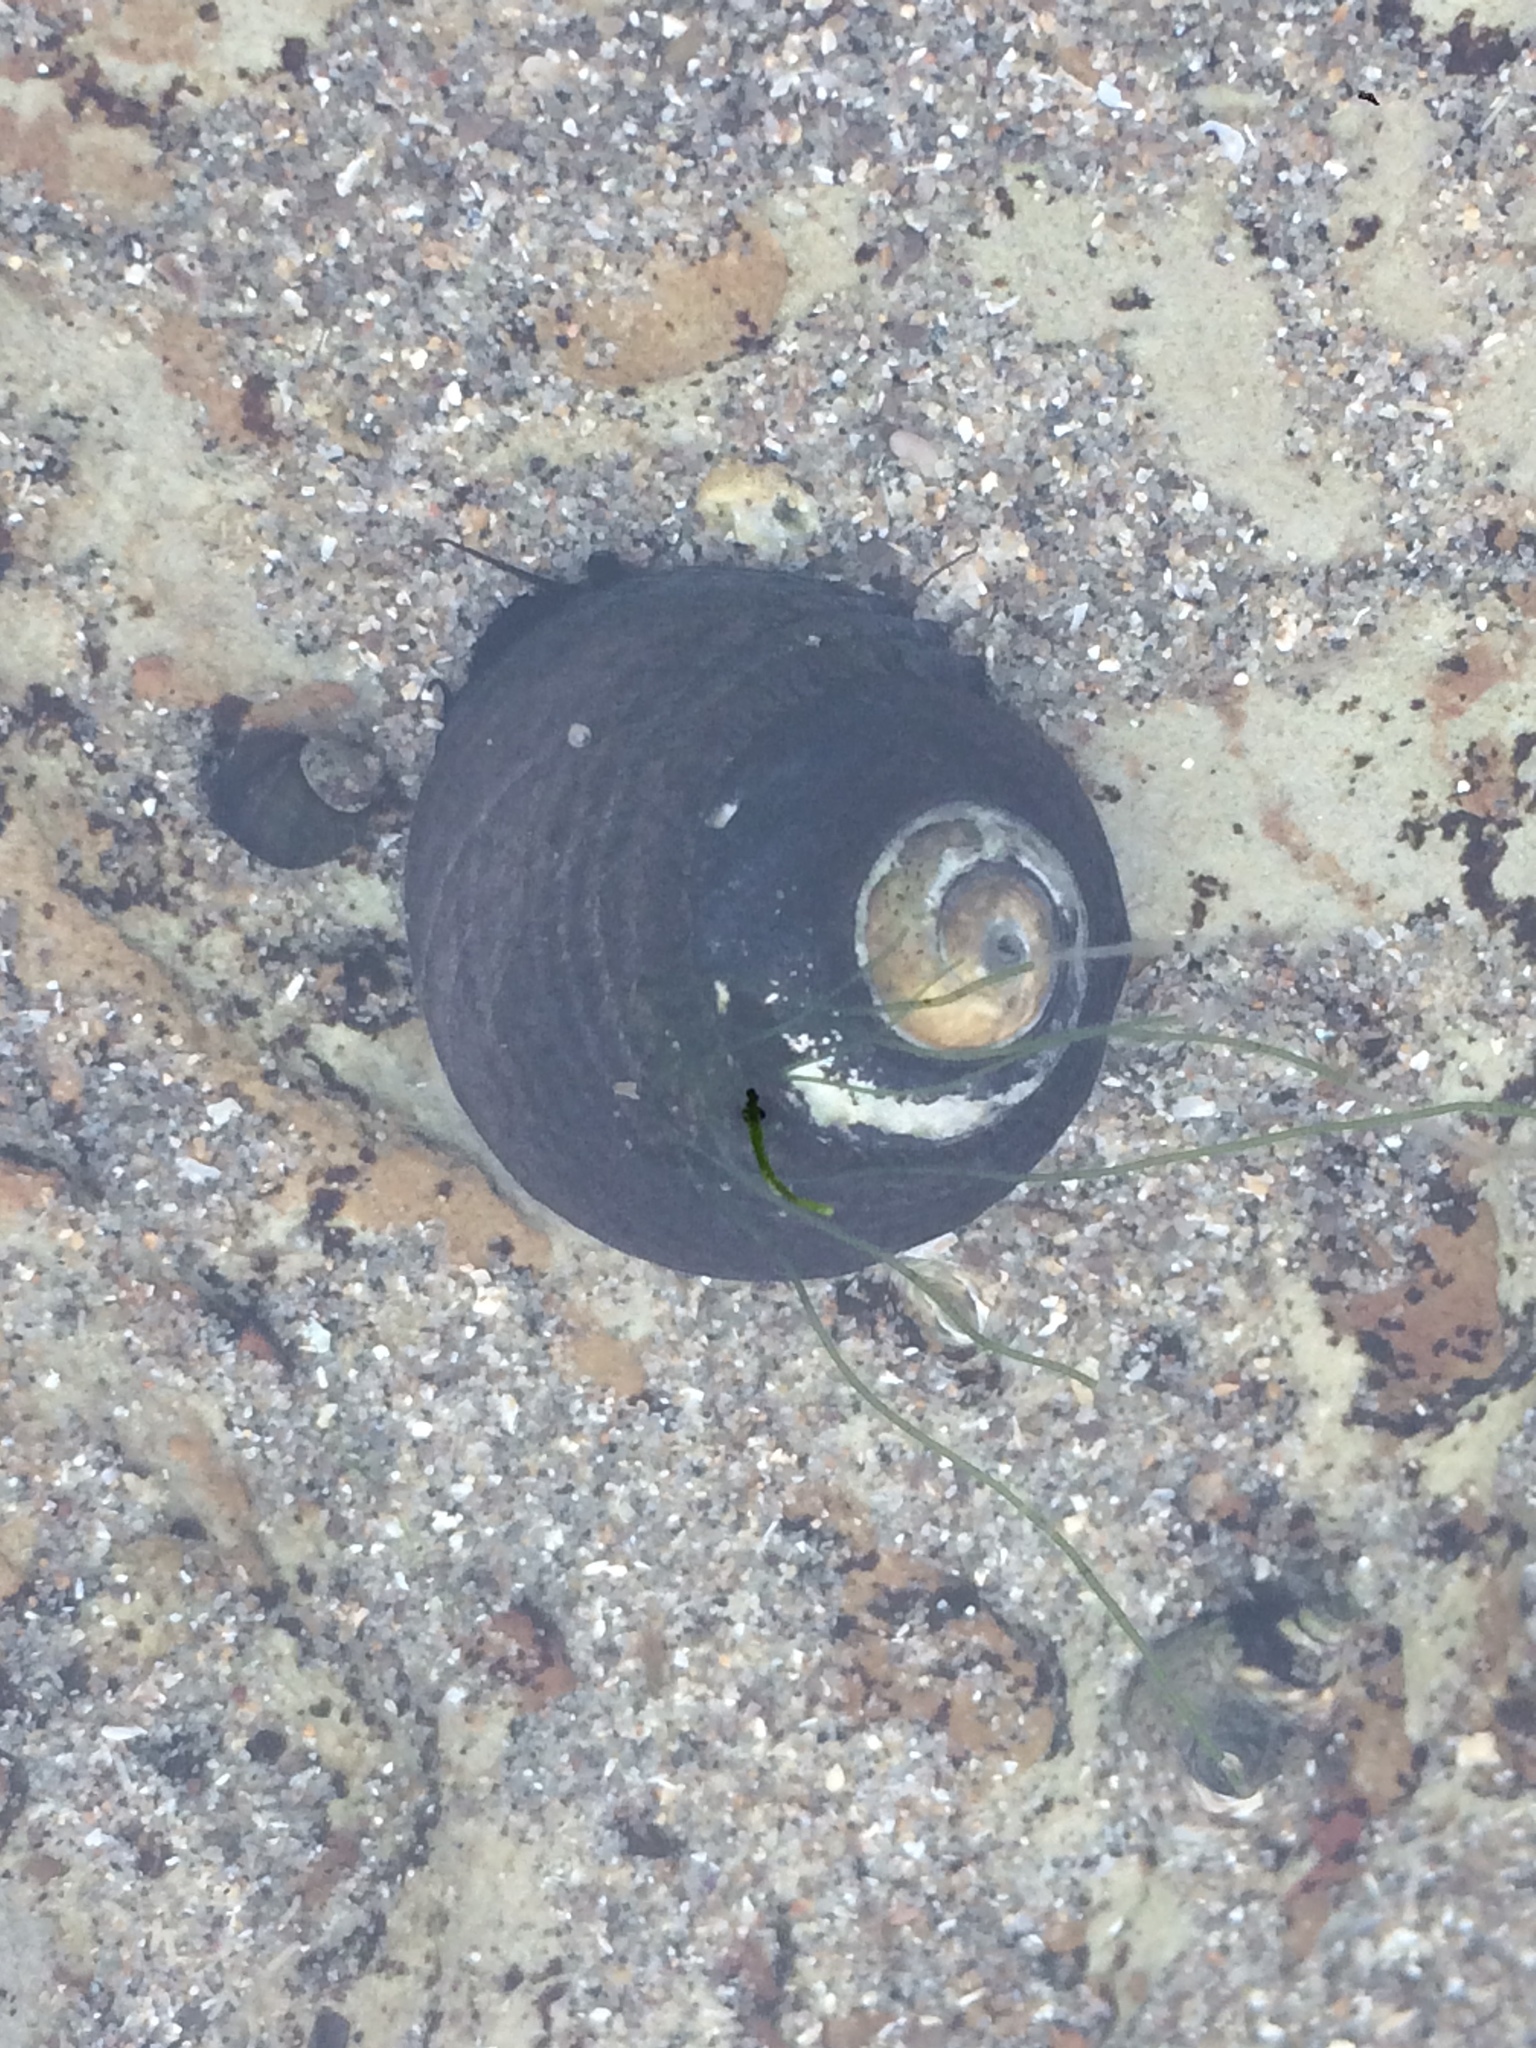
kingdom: Animalia
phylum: Mollusca
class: Gastropoda
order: Trochida
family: Tegulidae
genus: Tegula
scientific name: Tegula funebralis
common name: Black tegula
